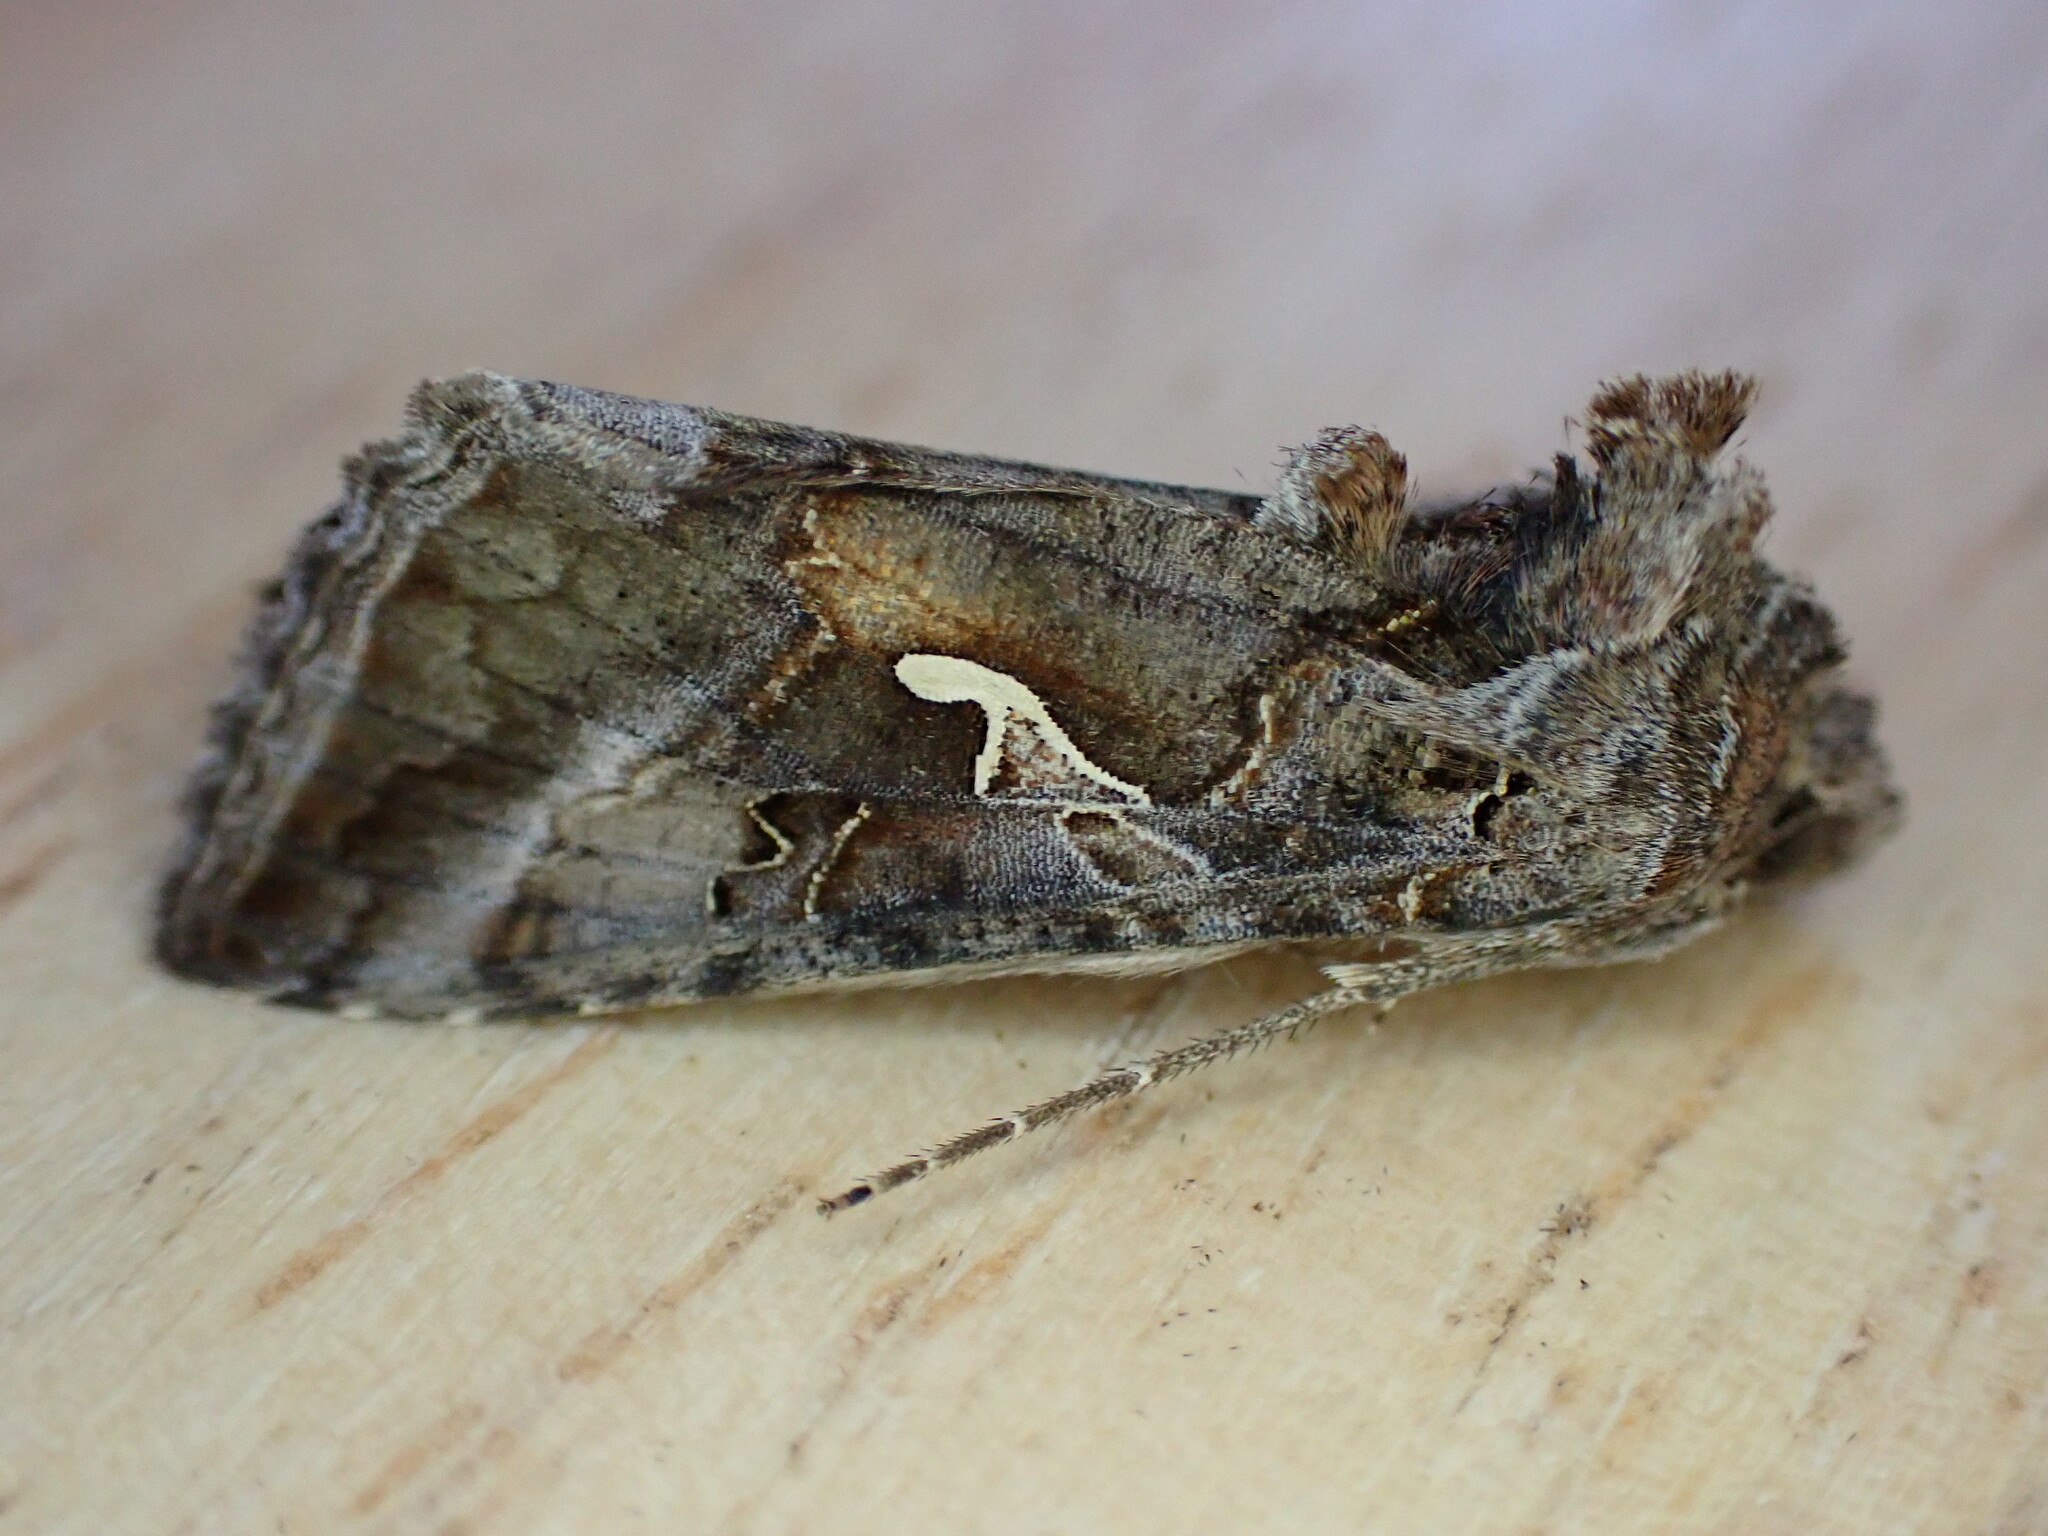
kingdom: Animalia
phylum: Arthropoda
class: Insecta
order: Lepidoptera
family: Noctuidae
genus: Autographa
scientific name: Autographa gamma
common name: Silver y
